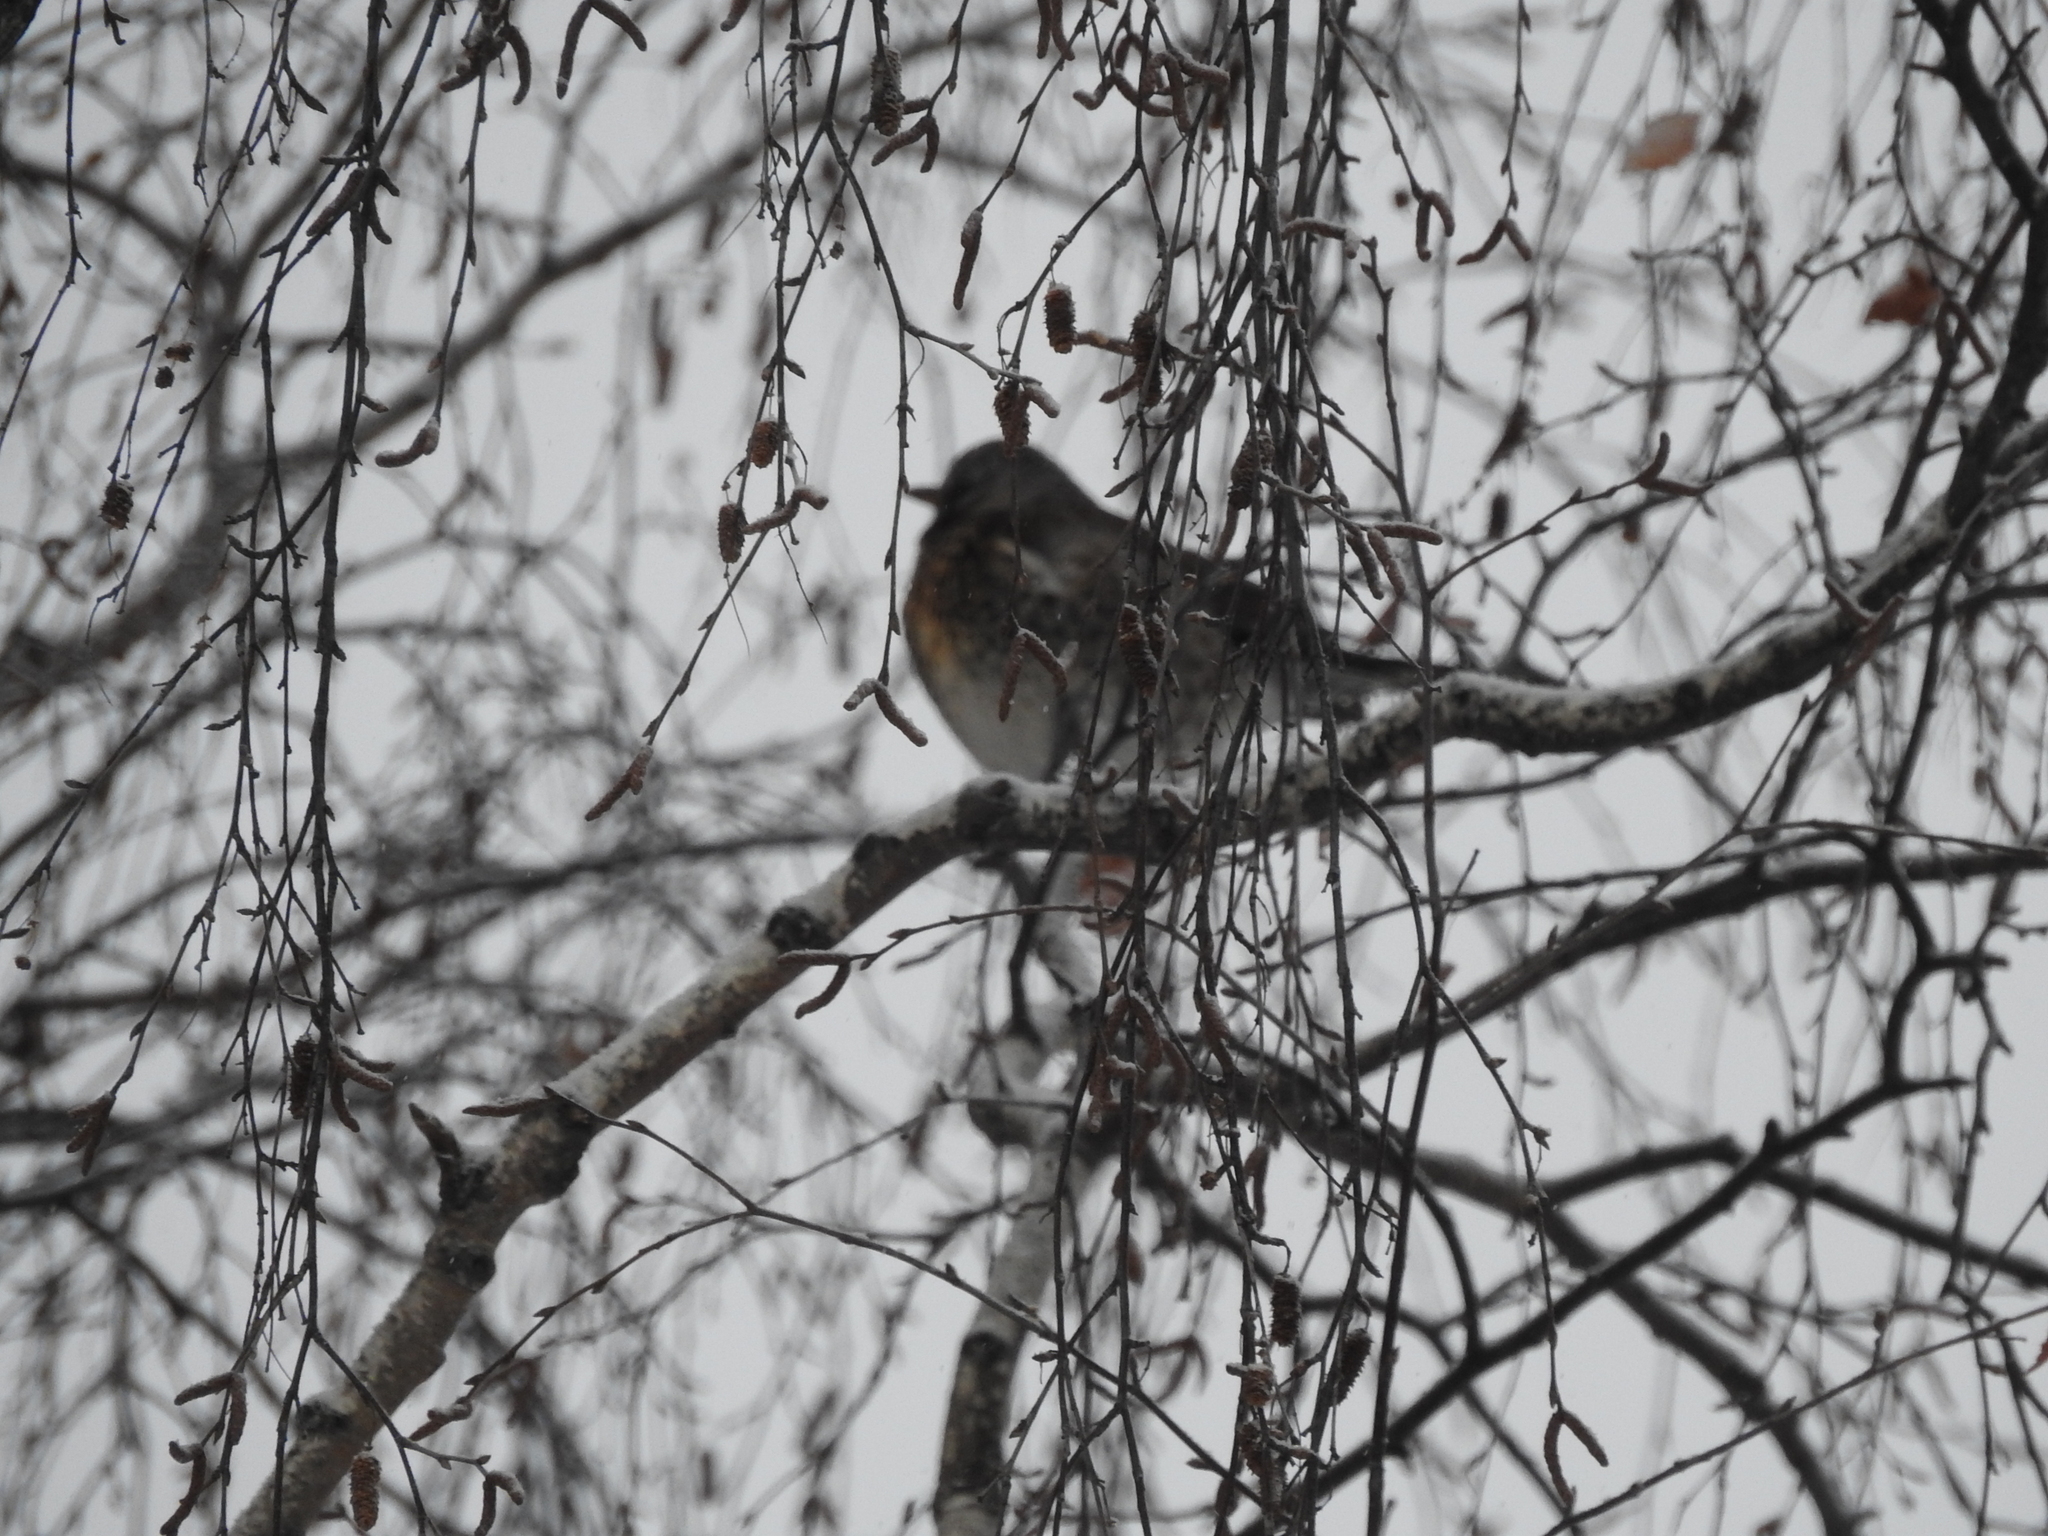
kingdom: Animalia
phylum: Chordata
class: Aves
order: Passeriformes
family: Turdidae
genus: Turdus
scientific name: Turdus pilaris
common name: Fieldfare
